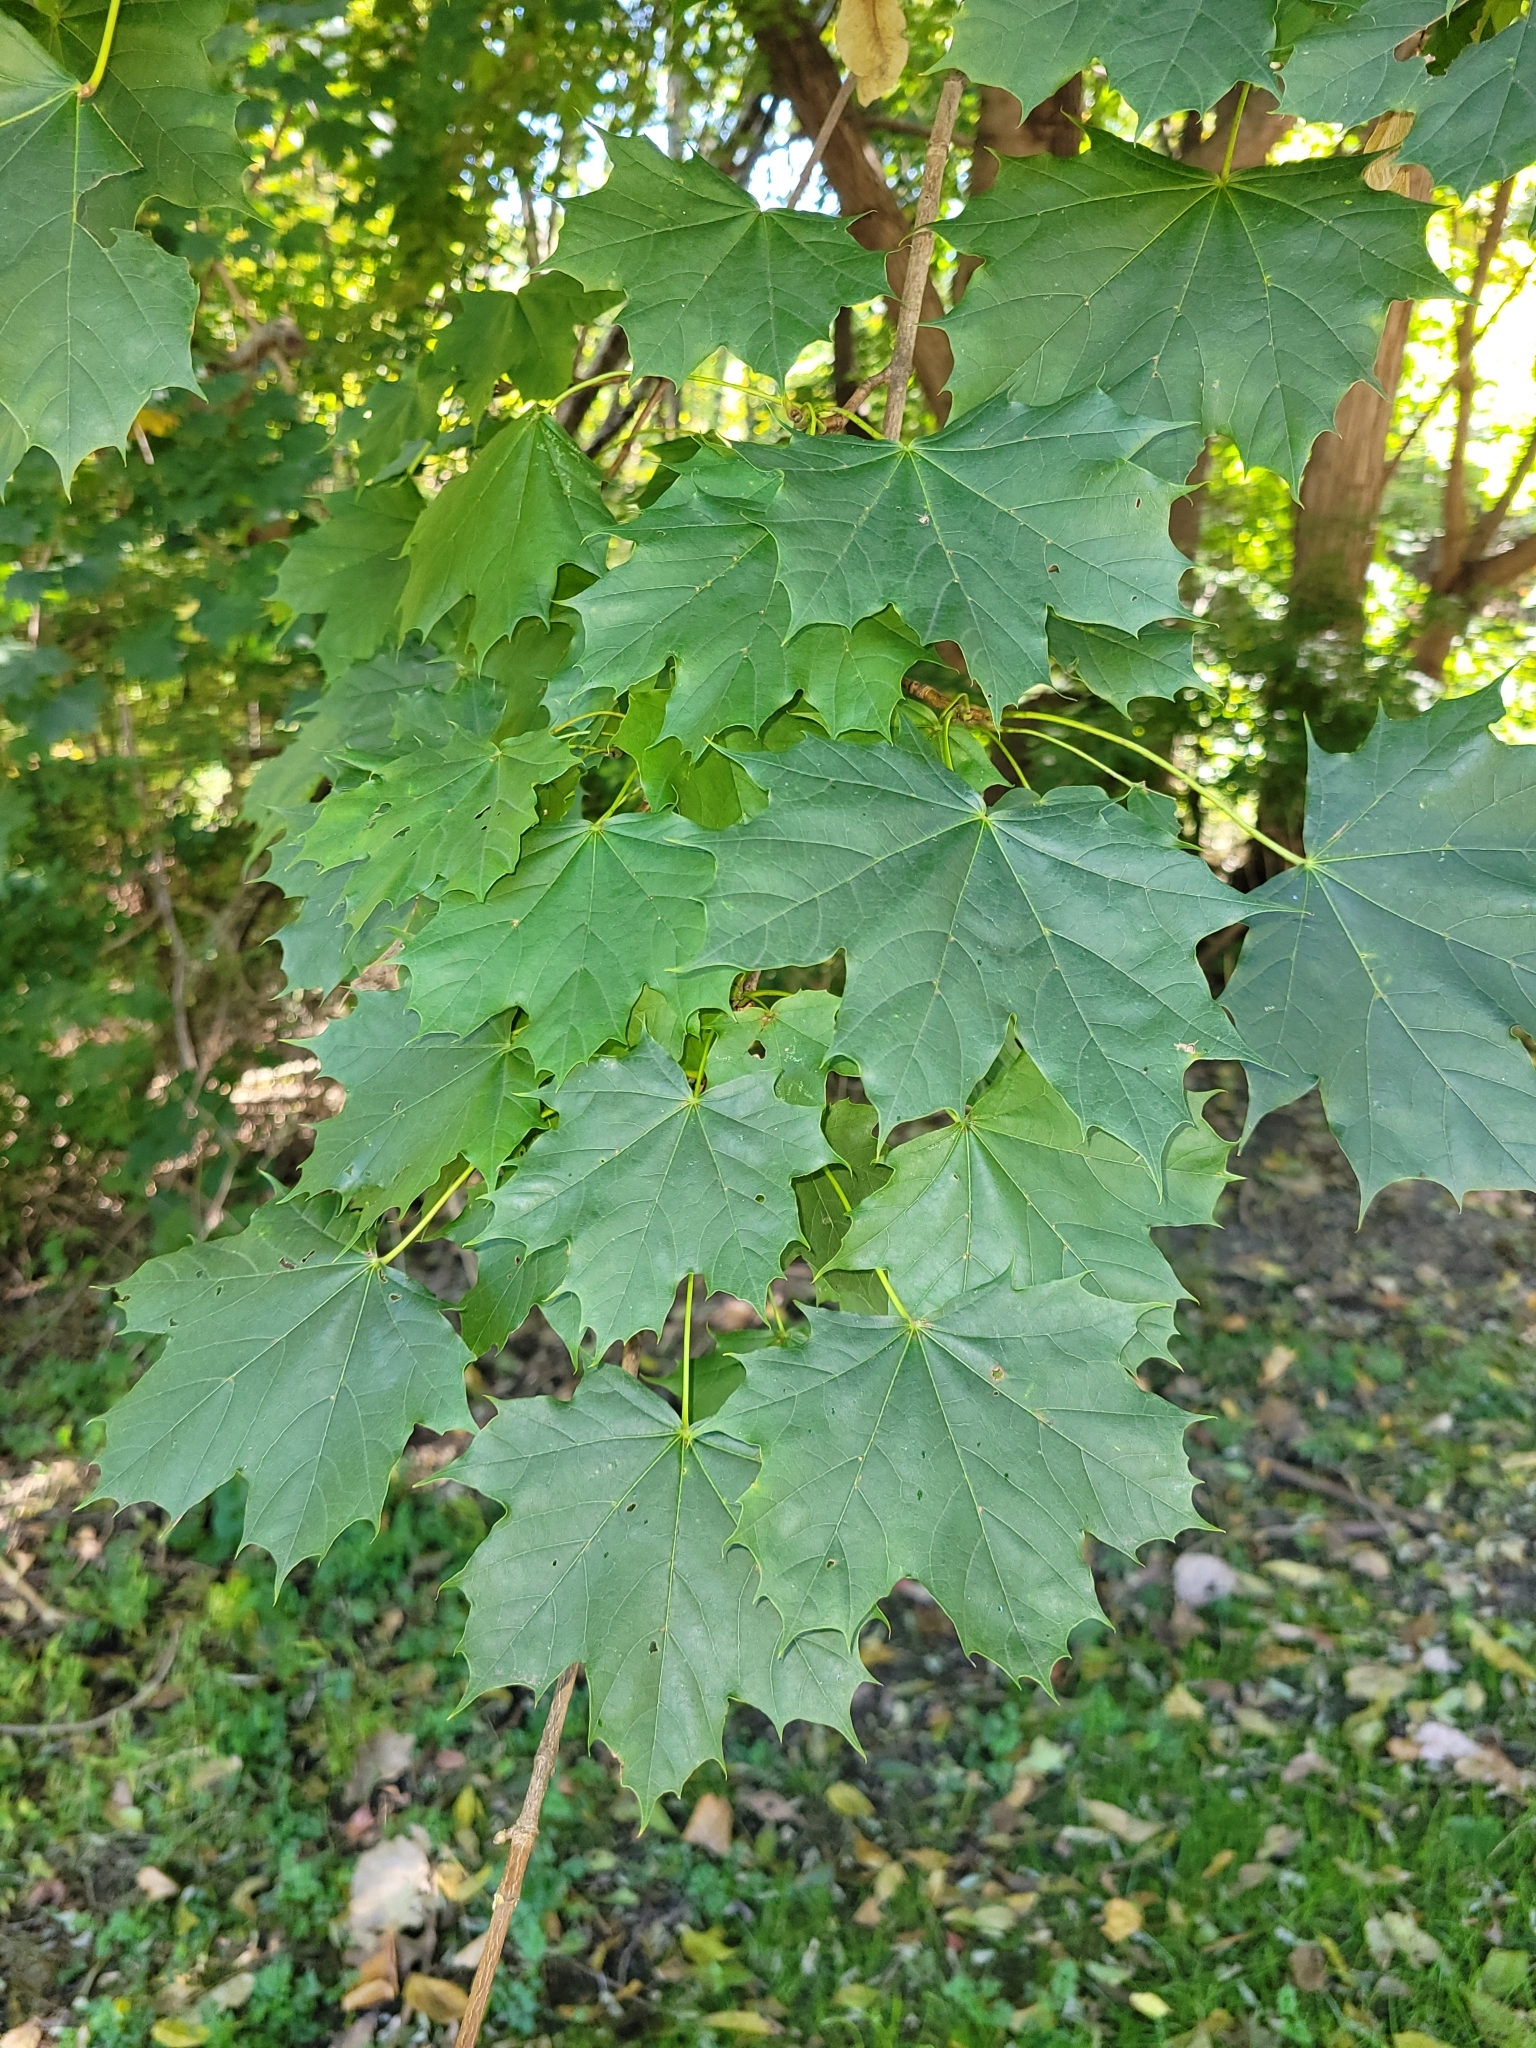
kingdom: Plantae
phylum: Tracheophyta
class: Magnoliopsida
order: Sapindales
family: Sapindaceae
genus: Acer
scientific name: Acer platanoides
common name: Norway maple
